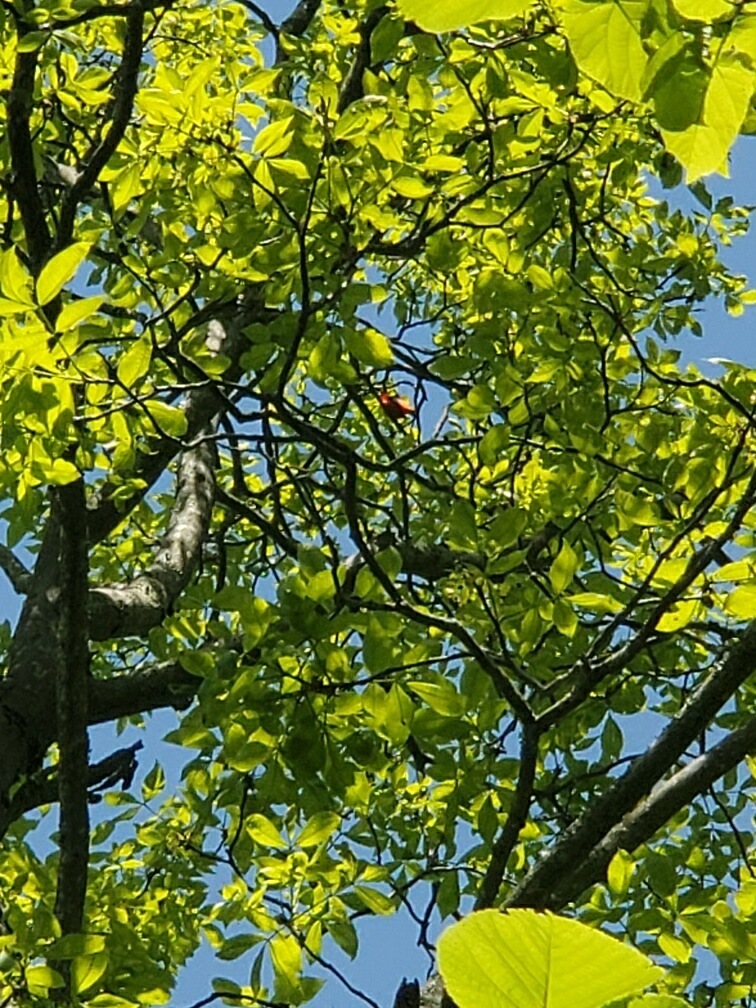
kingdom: Animalia
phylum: Chordata
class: Aves
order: Passeriformes
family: Cardinalidae
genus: Piranga
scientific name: Piranga olivacea
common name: Scarlet tanager
